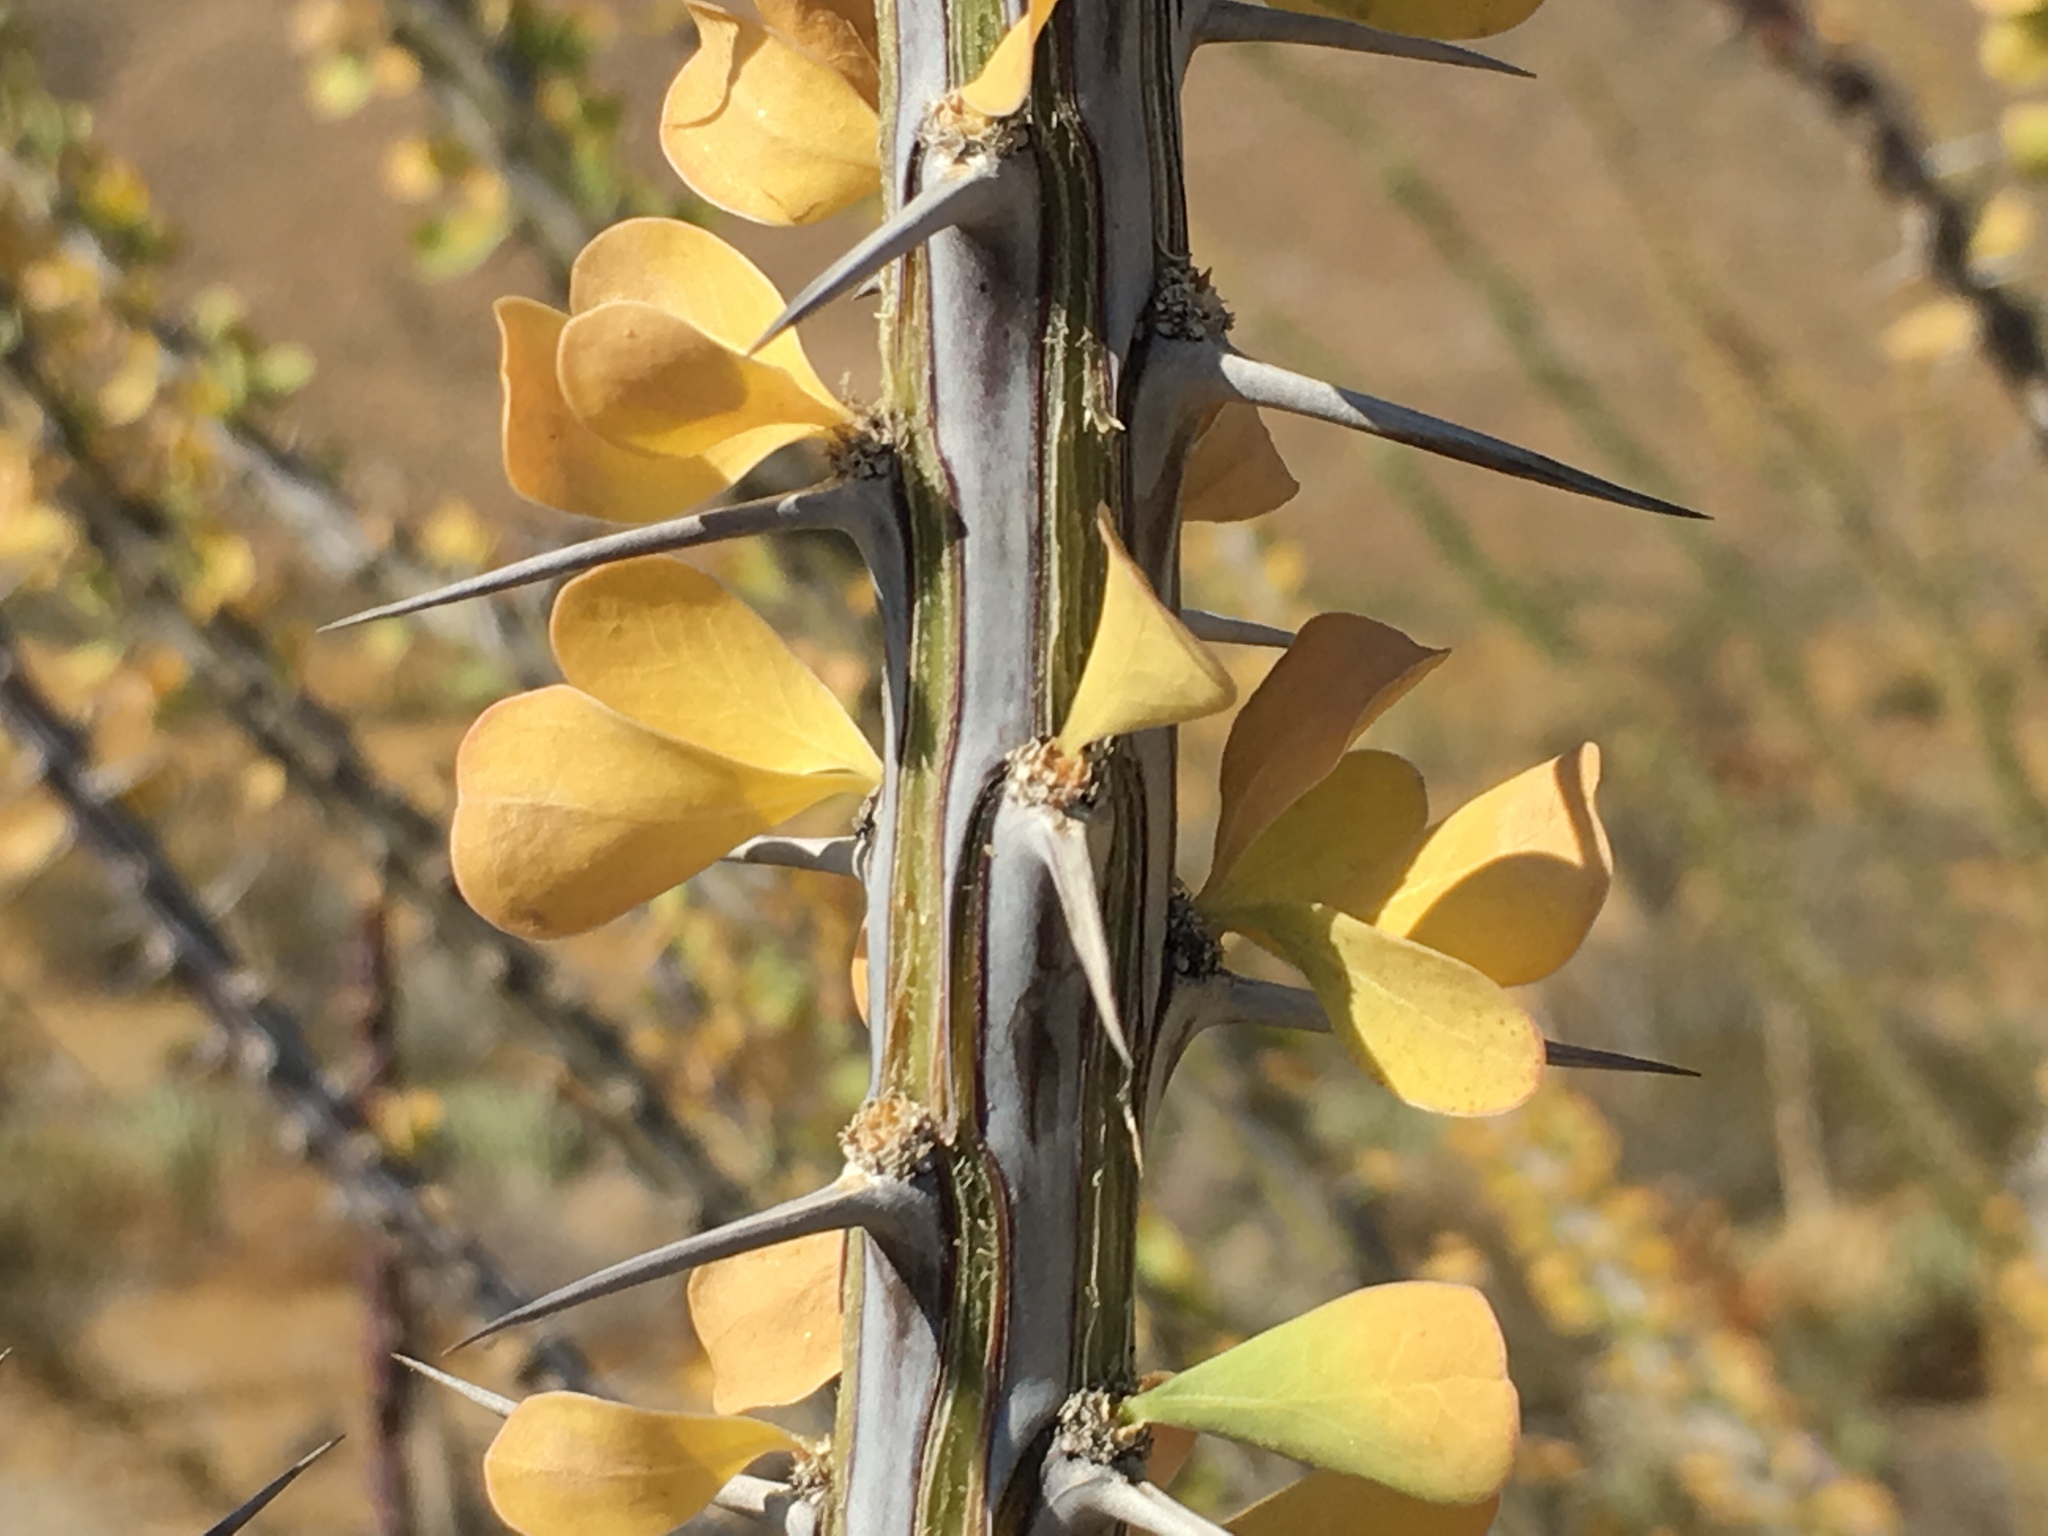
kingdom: Plantae
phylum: Tracheophyta
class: Magnoliopsida
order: Ericales
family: Fouquieriaceae
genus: Fouquieria
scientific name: Fouquieria splendens
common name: Vine-cactus
